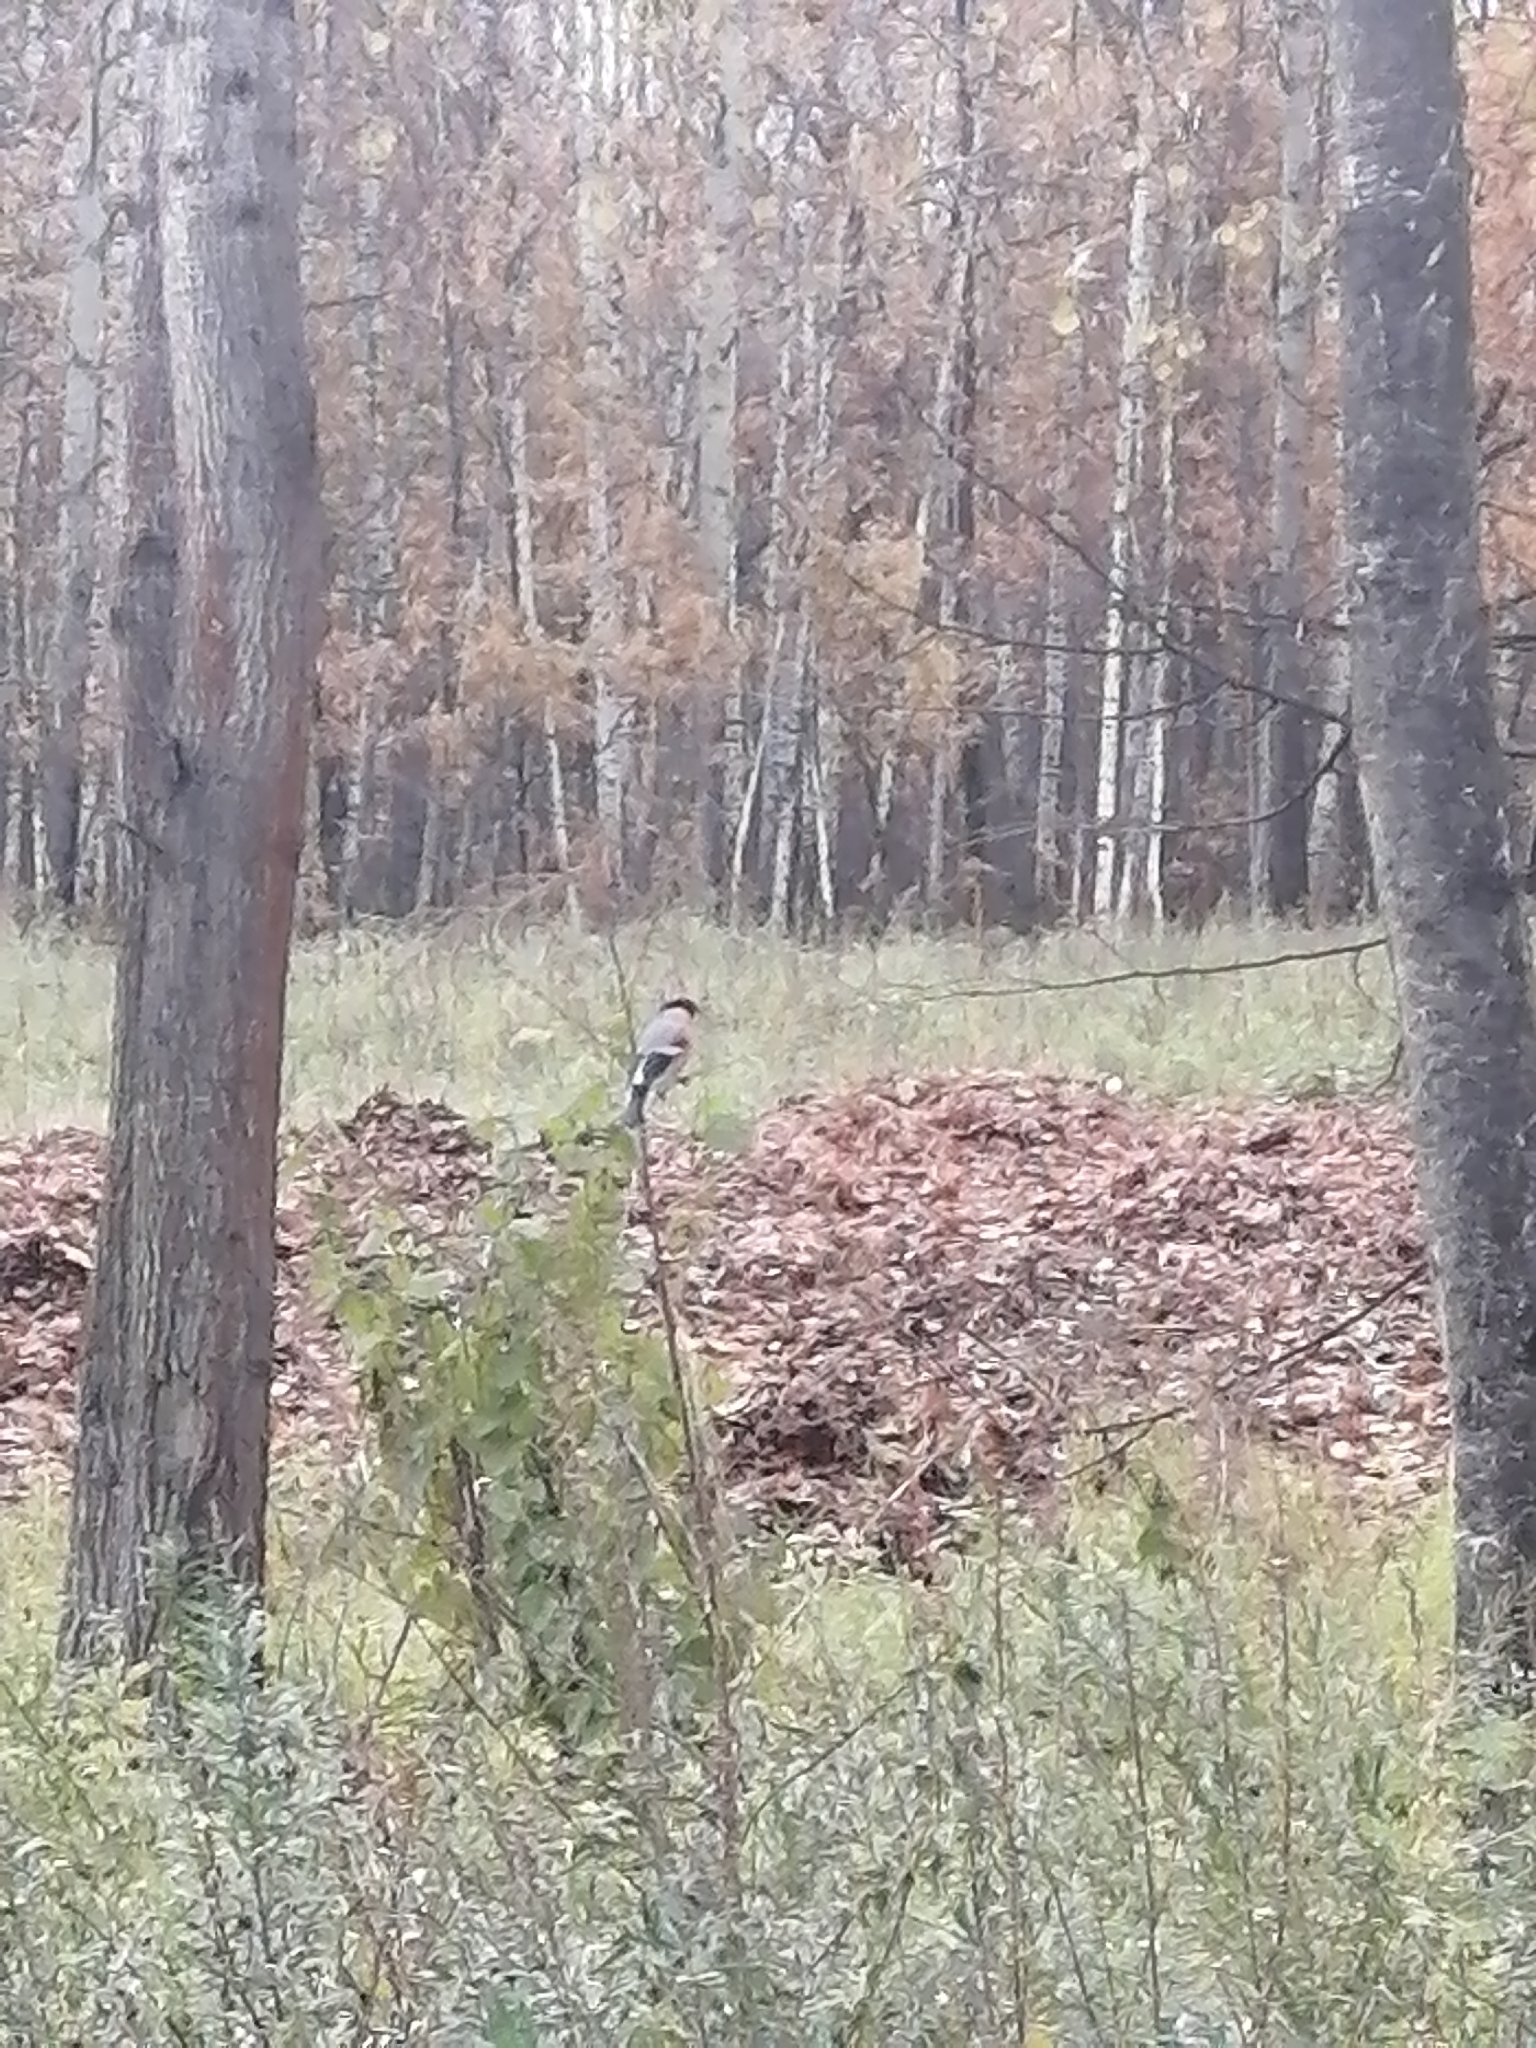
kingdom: Animalia
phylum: Chordata
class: Aves
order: Passeriformes
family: Fringillidae
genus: Pyrrhula
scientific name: Pyrrhula pyrrhula
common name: Eurasian bullfinch
